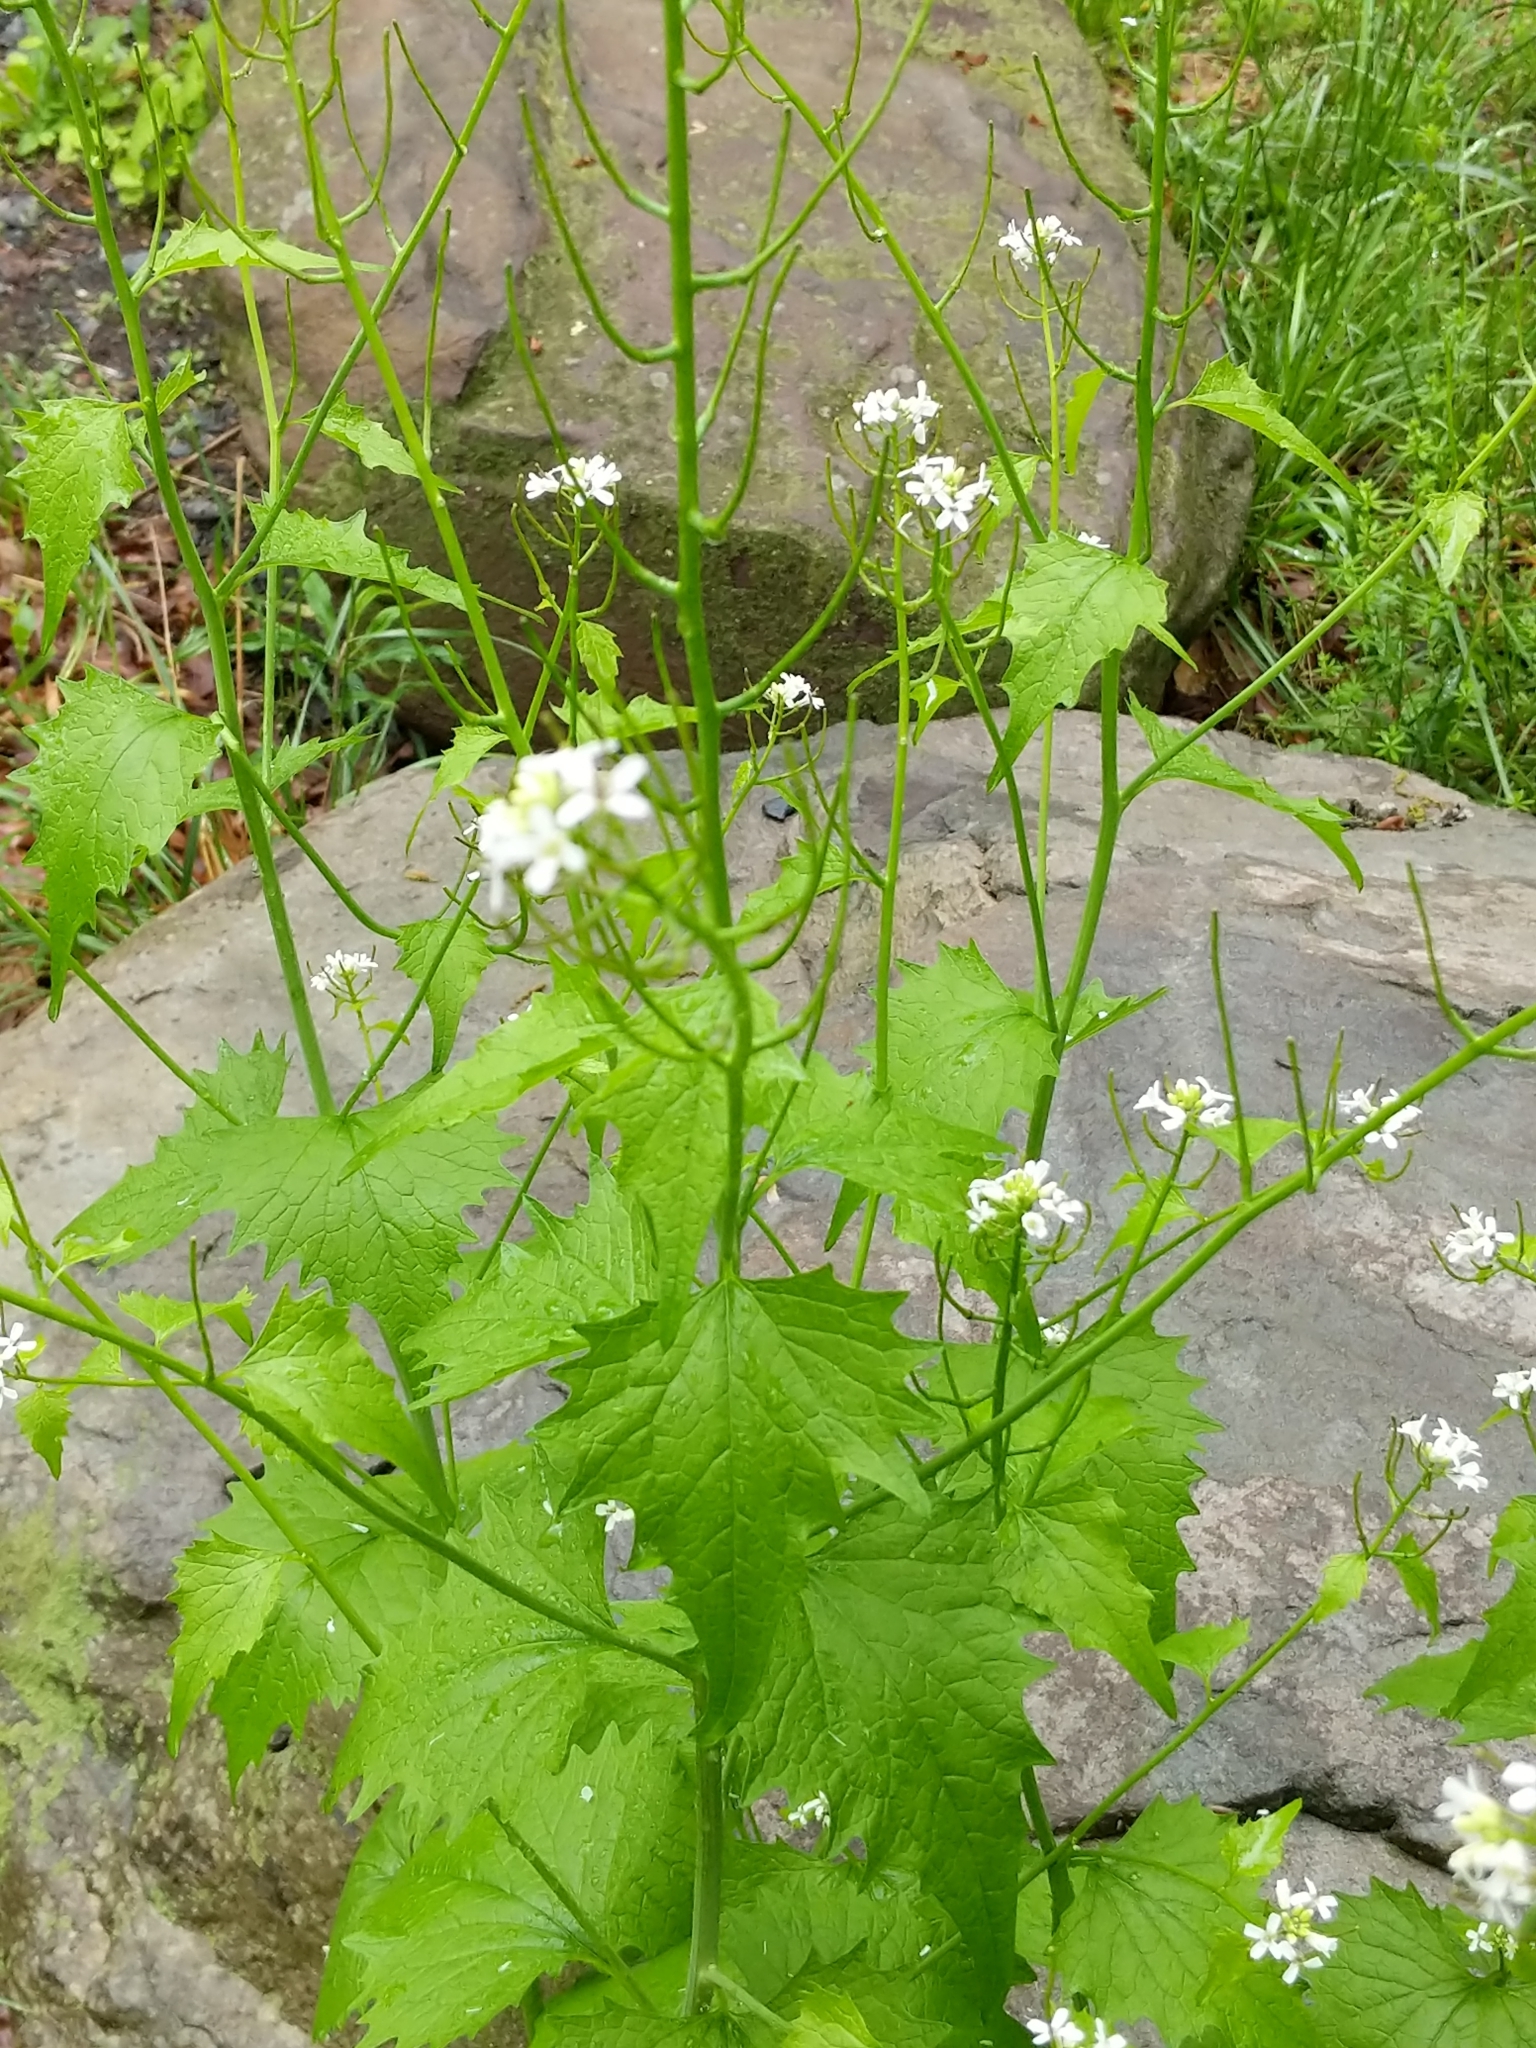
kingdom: Plantae
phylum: Tracheophyta
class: Magnoliopsida
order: Brassicales
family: Brassicaceae
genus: Alliaria
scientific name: Alliaria petiolata
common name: Garlic mustard
